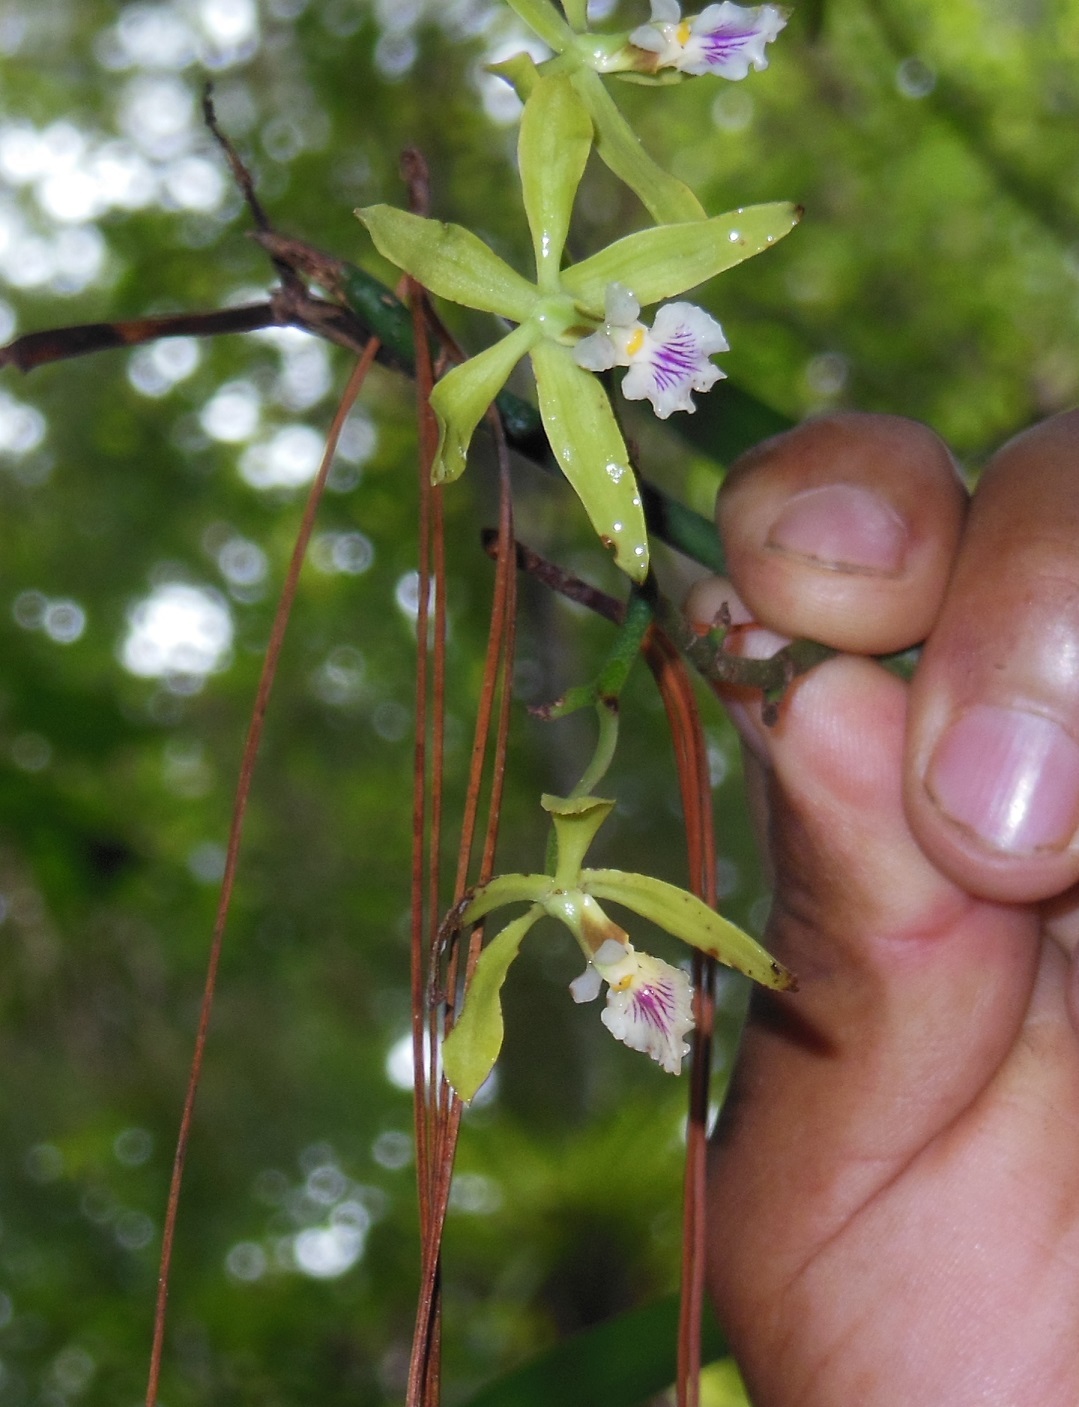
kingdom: Plantae
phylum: Tracheophyta
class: Liliopsida
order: Asparagales
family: Orchidaceae
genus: Encyclia
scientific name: Encyclia ceratistes
